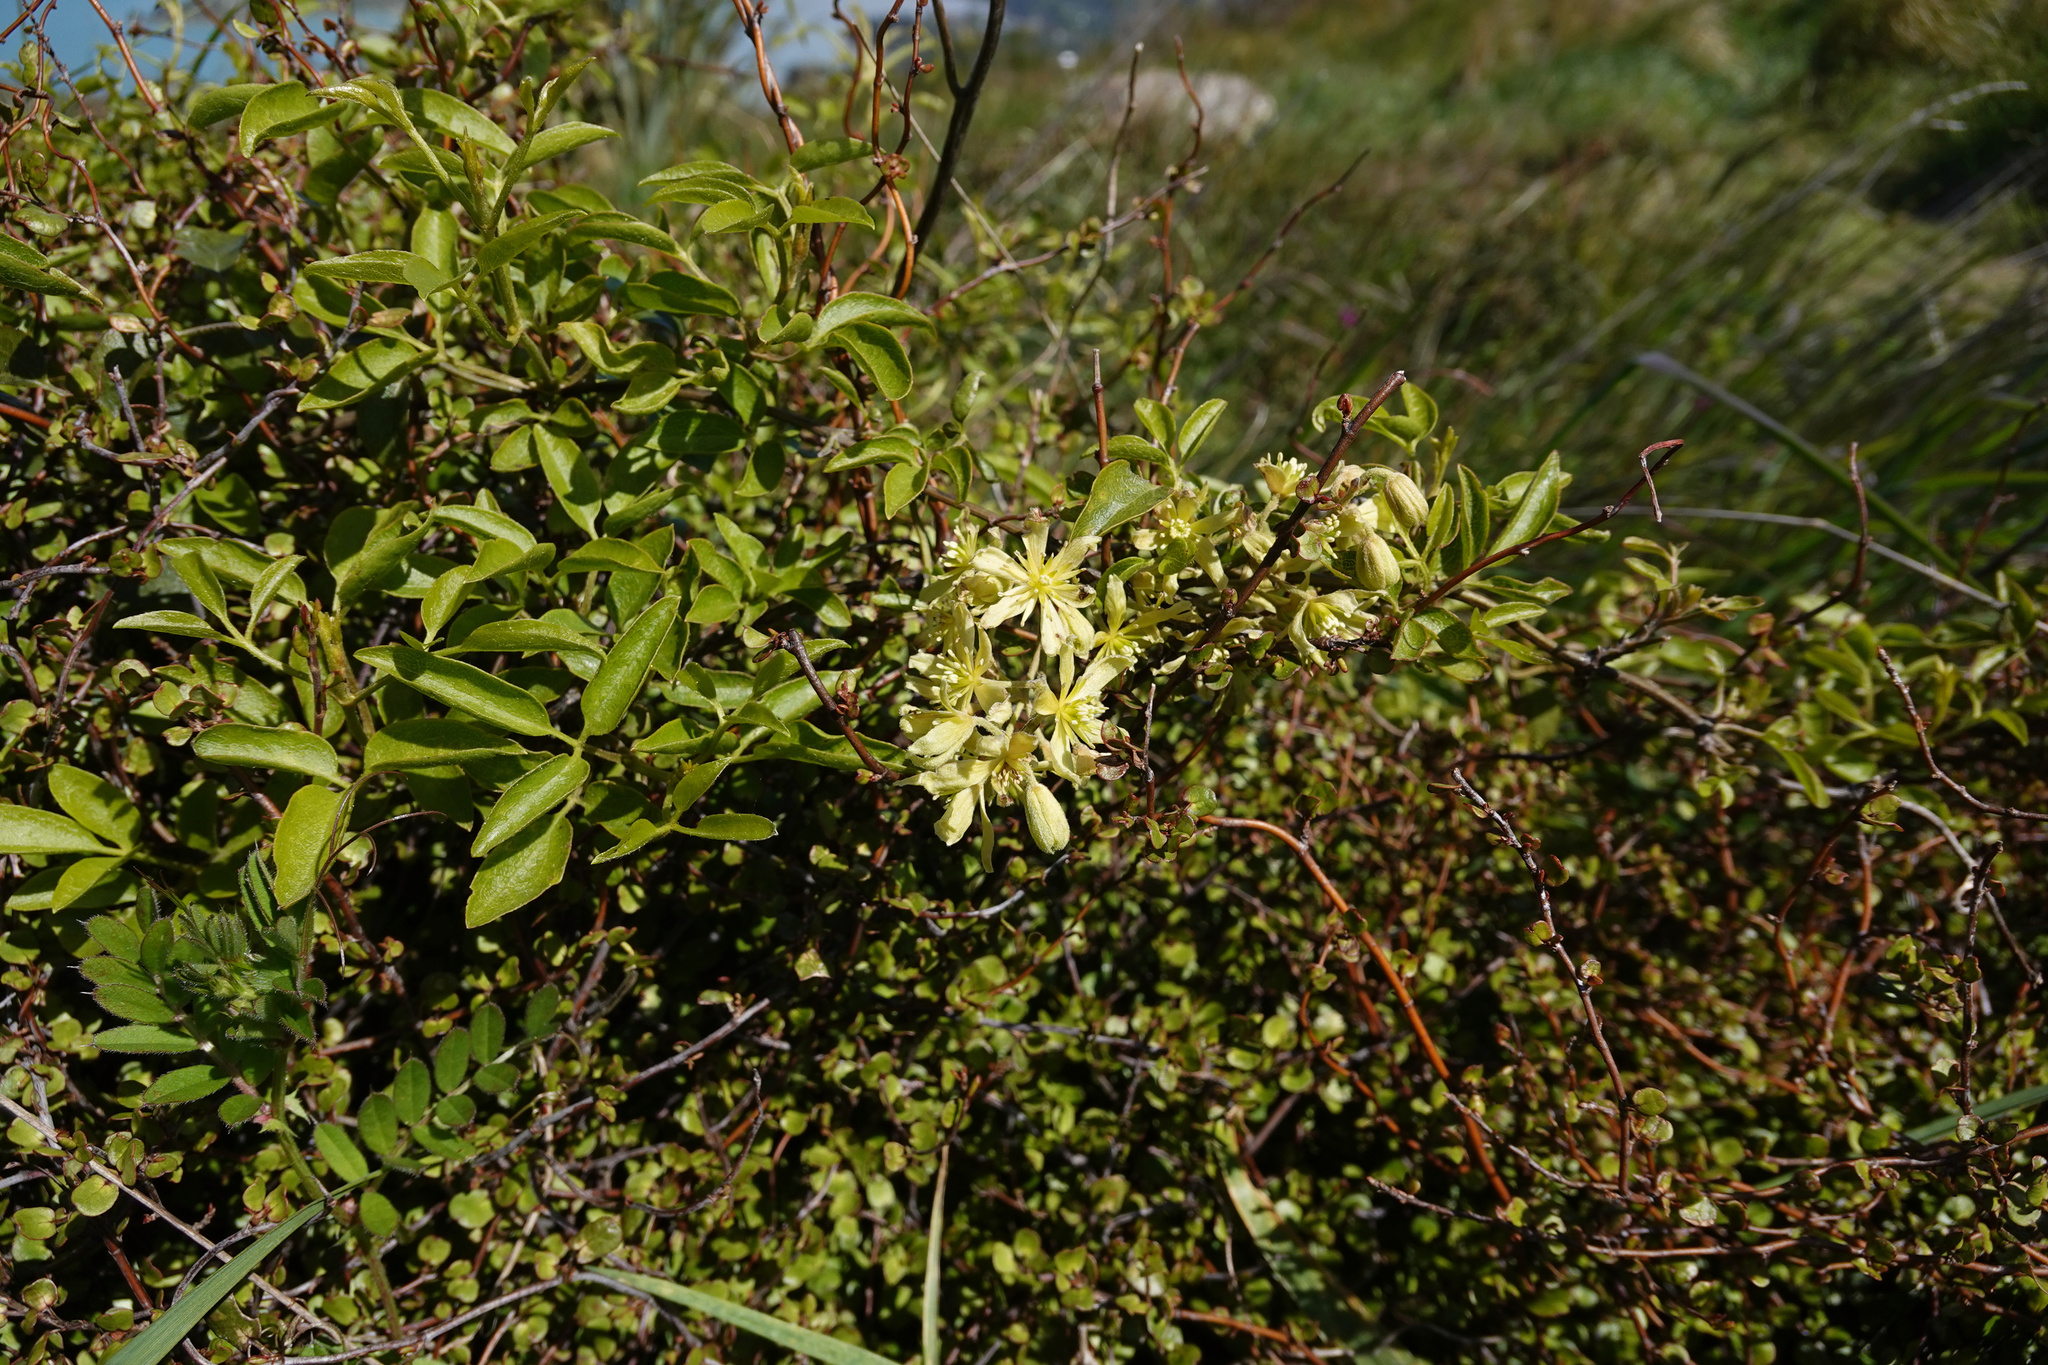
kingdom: Plantae
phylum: Tracheophyta
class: Magnoliopsida
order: Ranunculales
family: Ranunculaceae
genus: Clematis
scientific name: Clematis foetida
